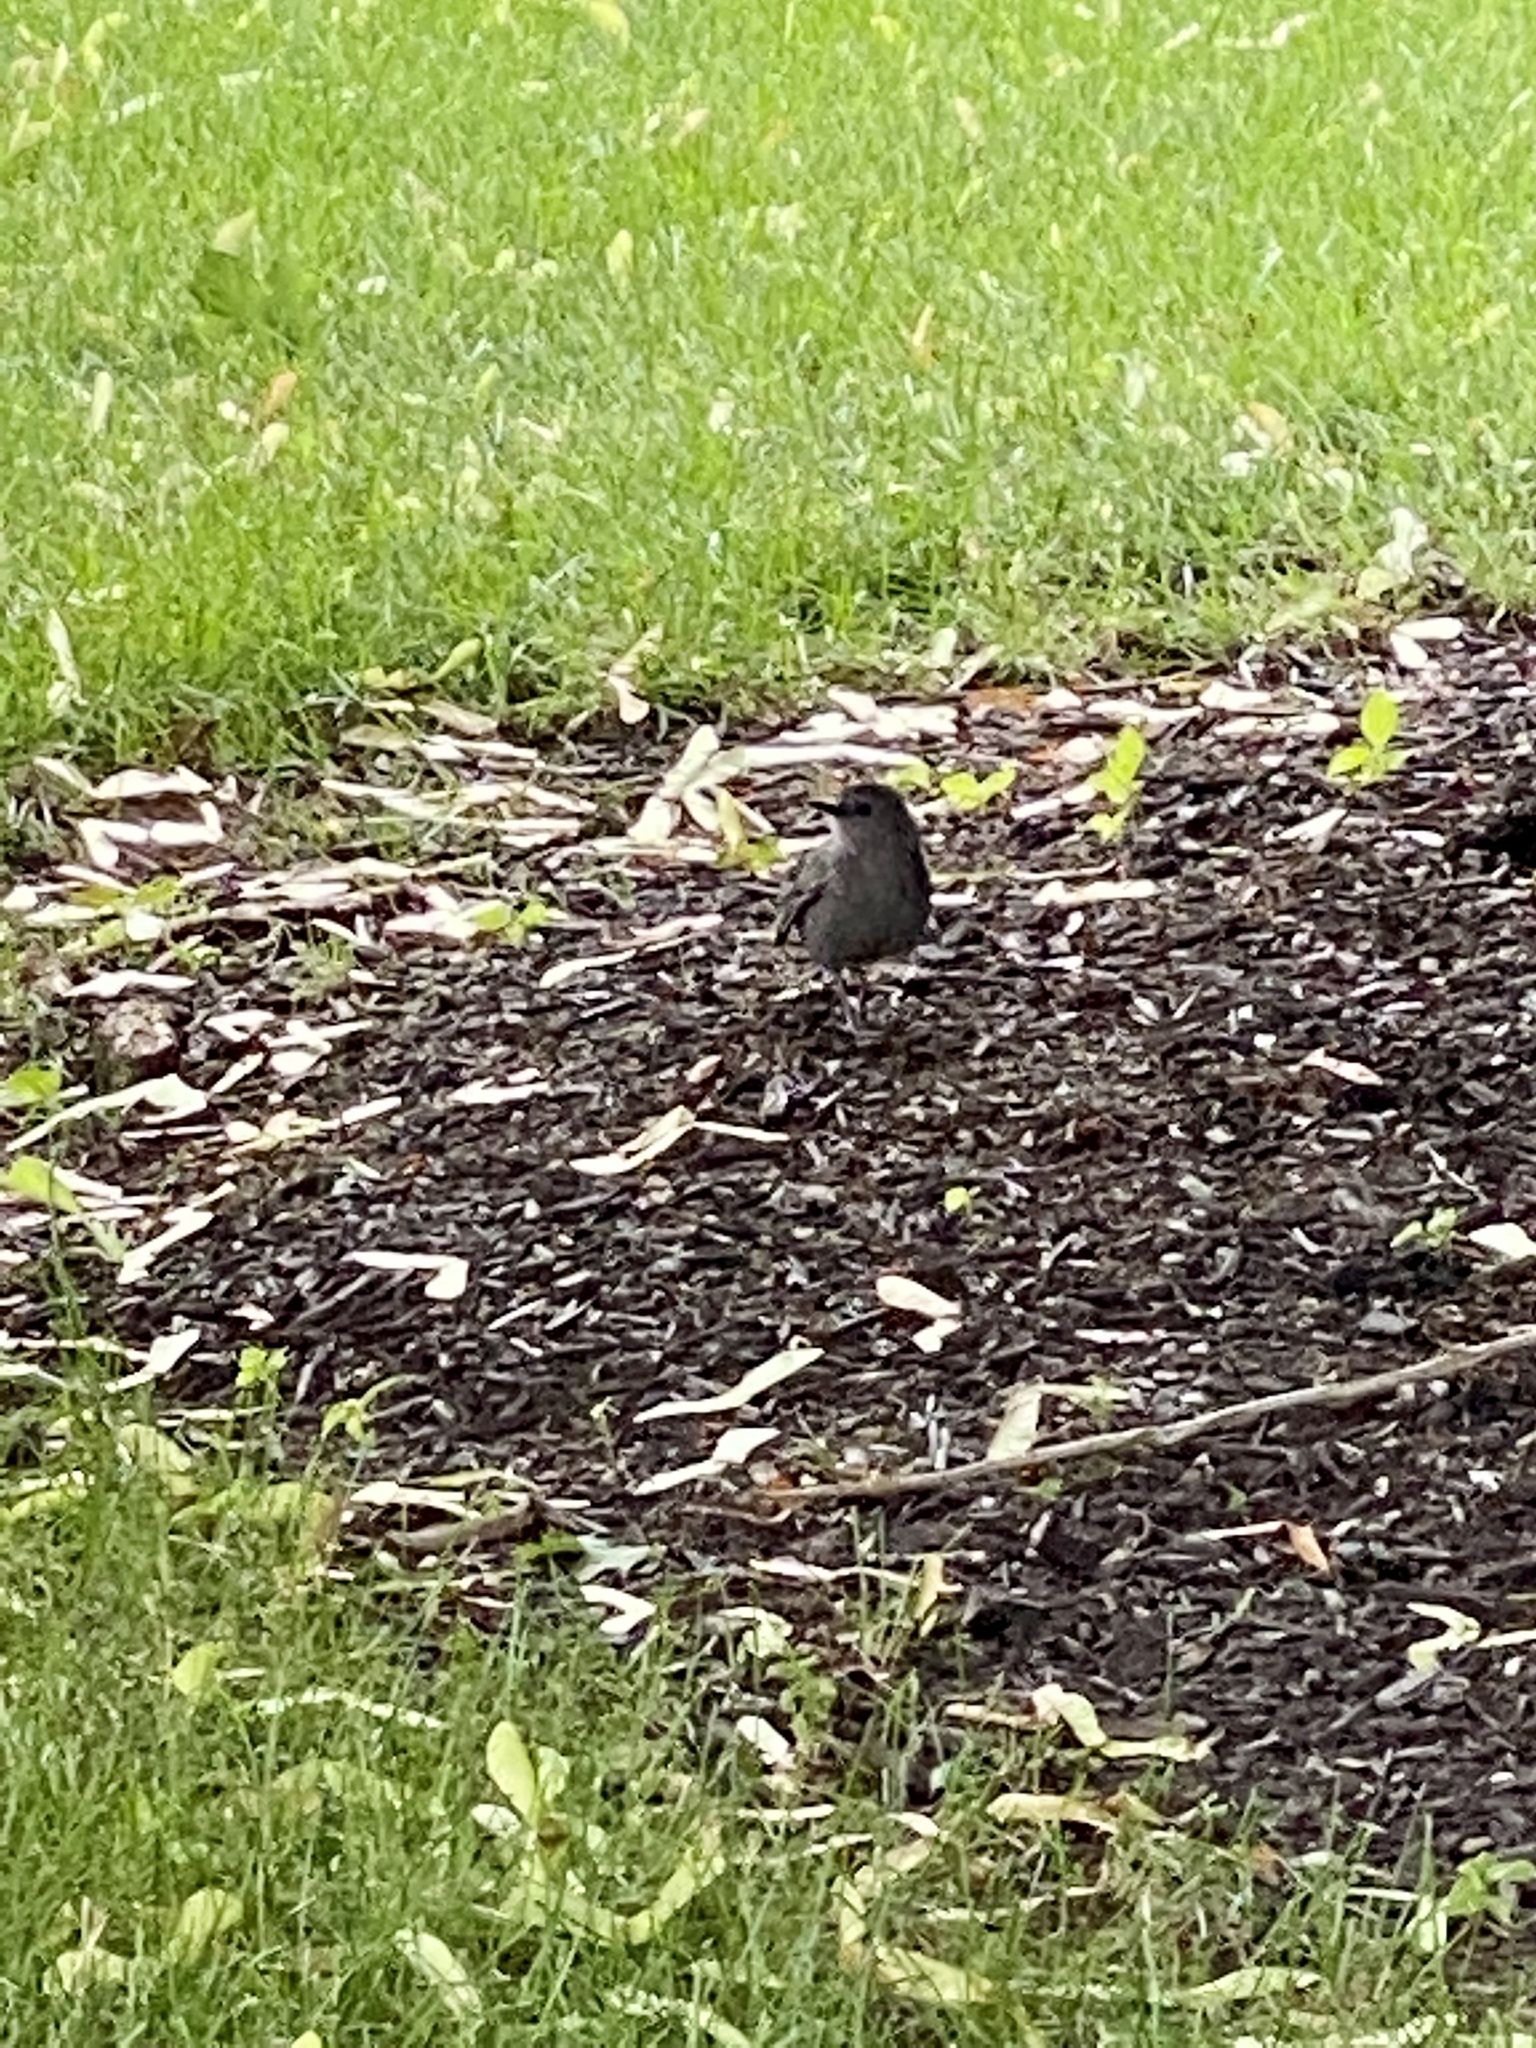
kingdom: Animalia
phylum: Chordata
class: Aves
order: Passeriformes
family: Mimidae
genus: Dumetella
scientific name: Dumetella carolinensis
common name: Gray catbird
